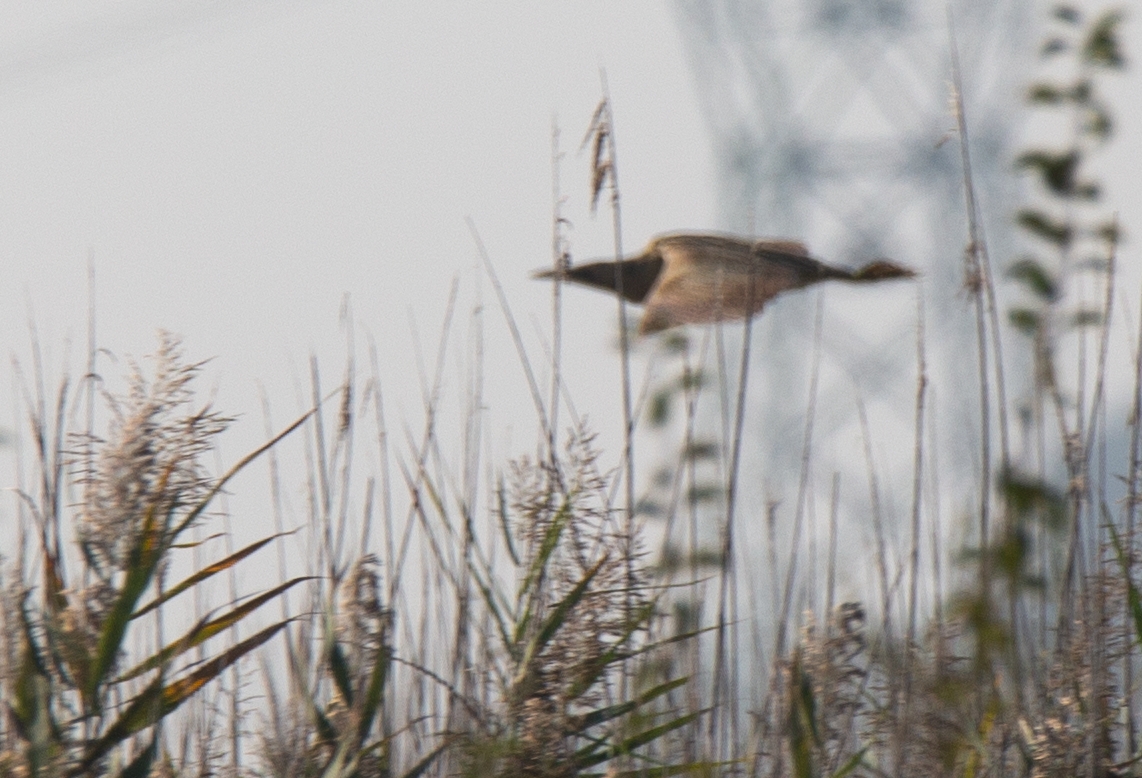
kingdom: Animalia
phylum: Chordata
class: Aves
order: Pelecaniformes
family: Ardeidae
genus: Botaurus
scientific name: Botaurus stellaris
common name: Eurasian bittern
